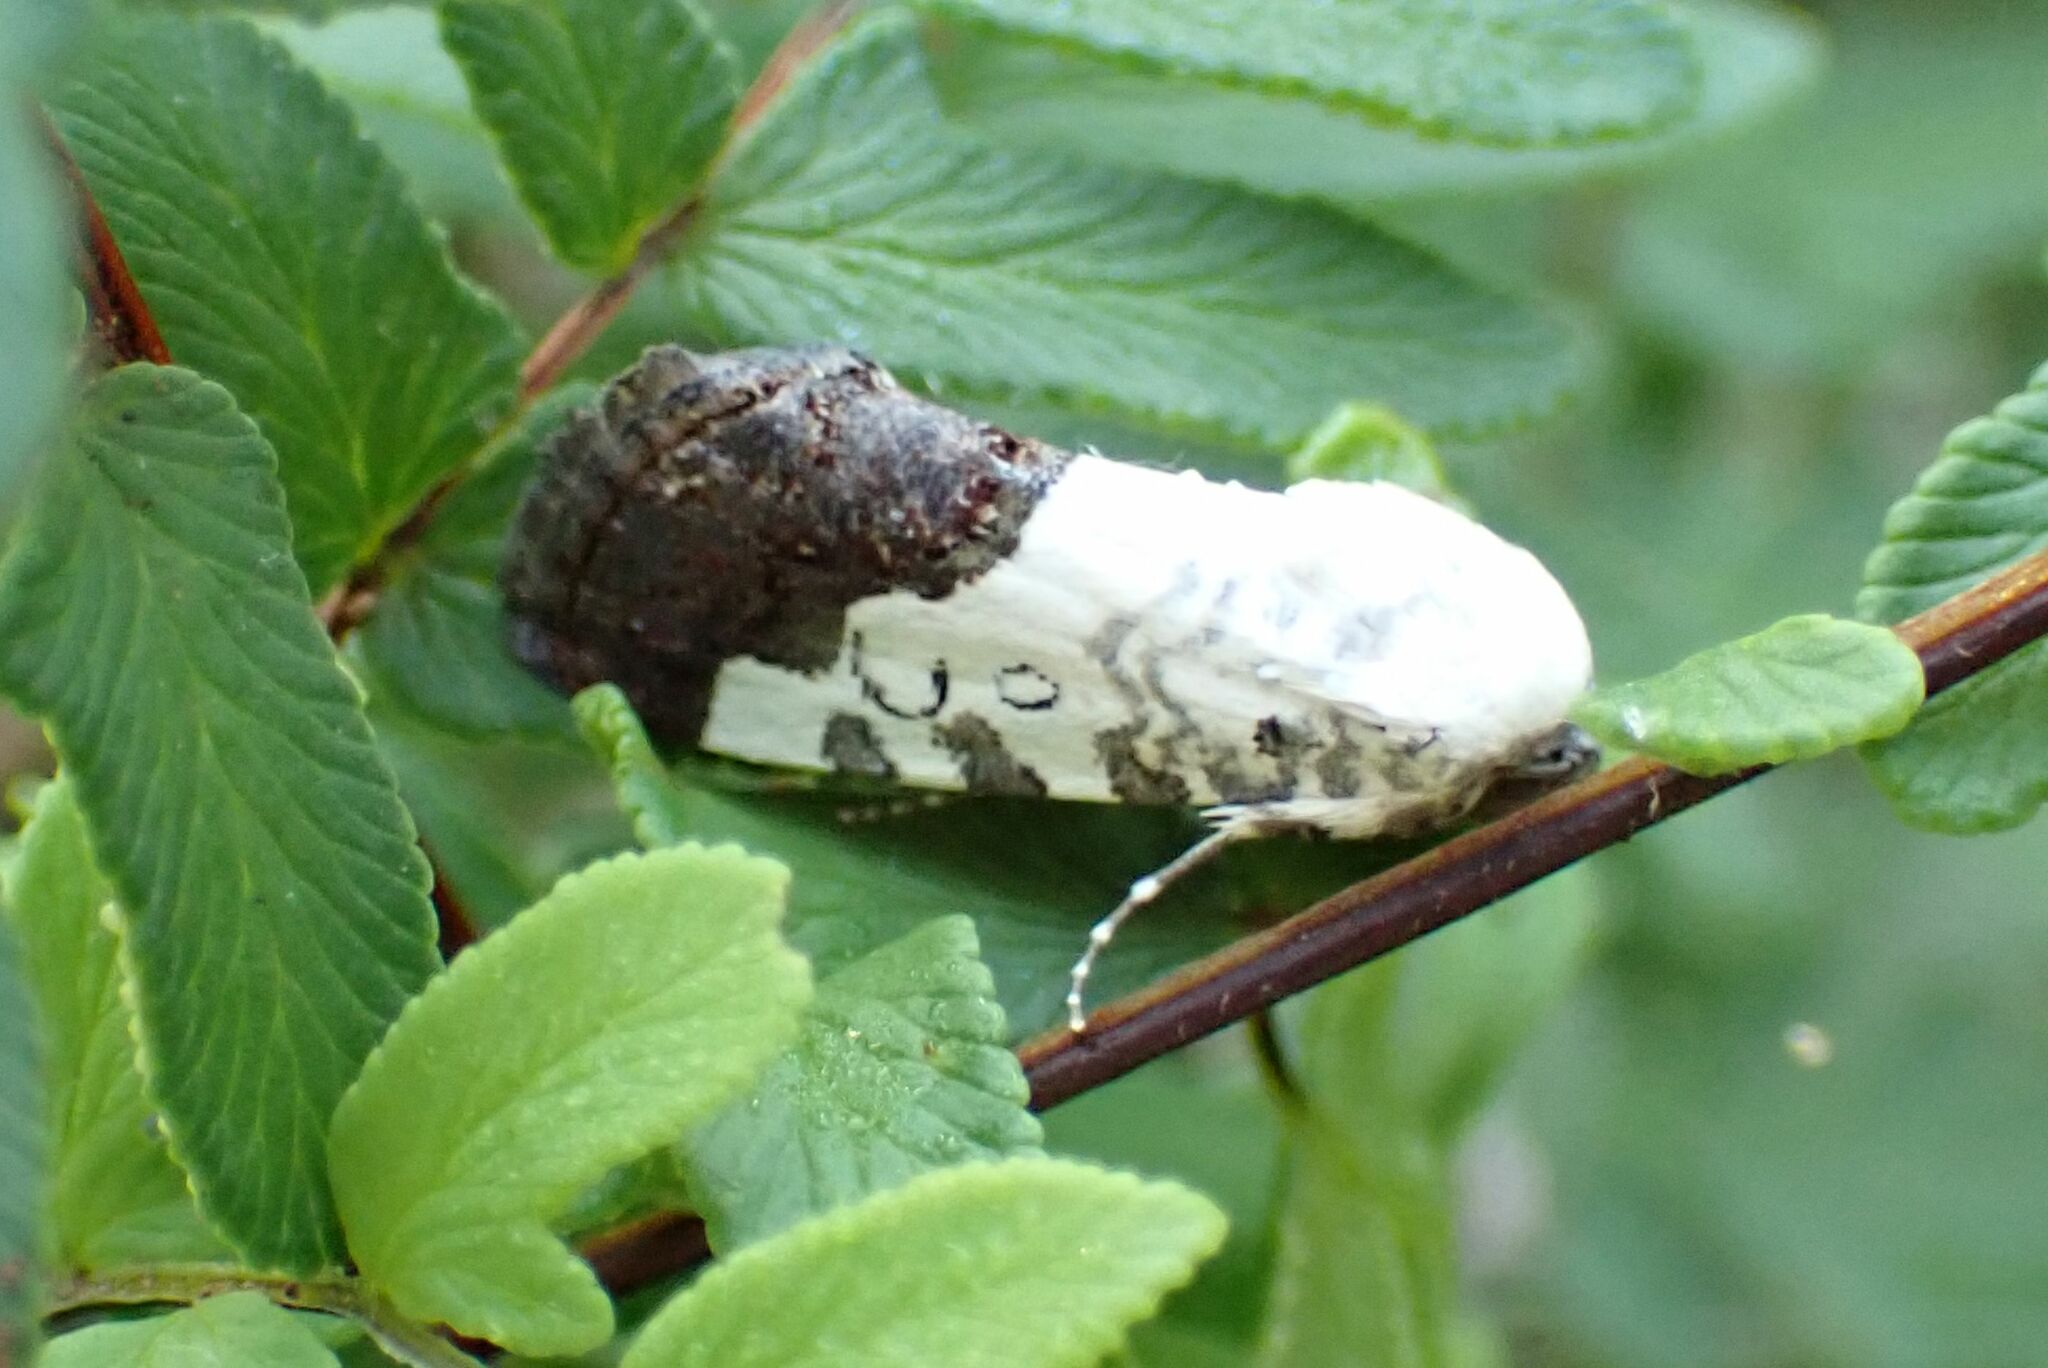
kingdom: Animalia
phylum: Arthropoda
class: Insecta
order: Lepidoptera
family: Noctuidae
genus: Acontia
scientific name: Acontia discoidea
